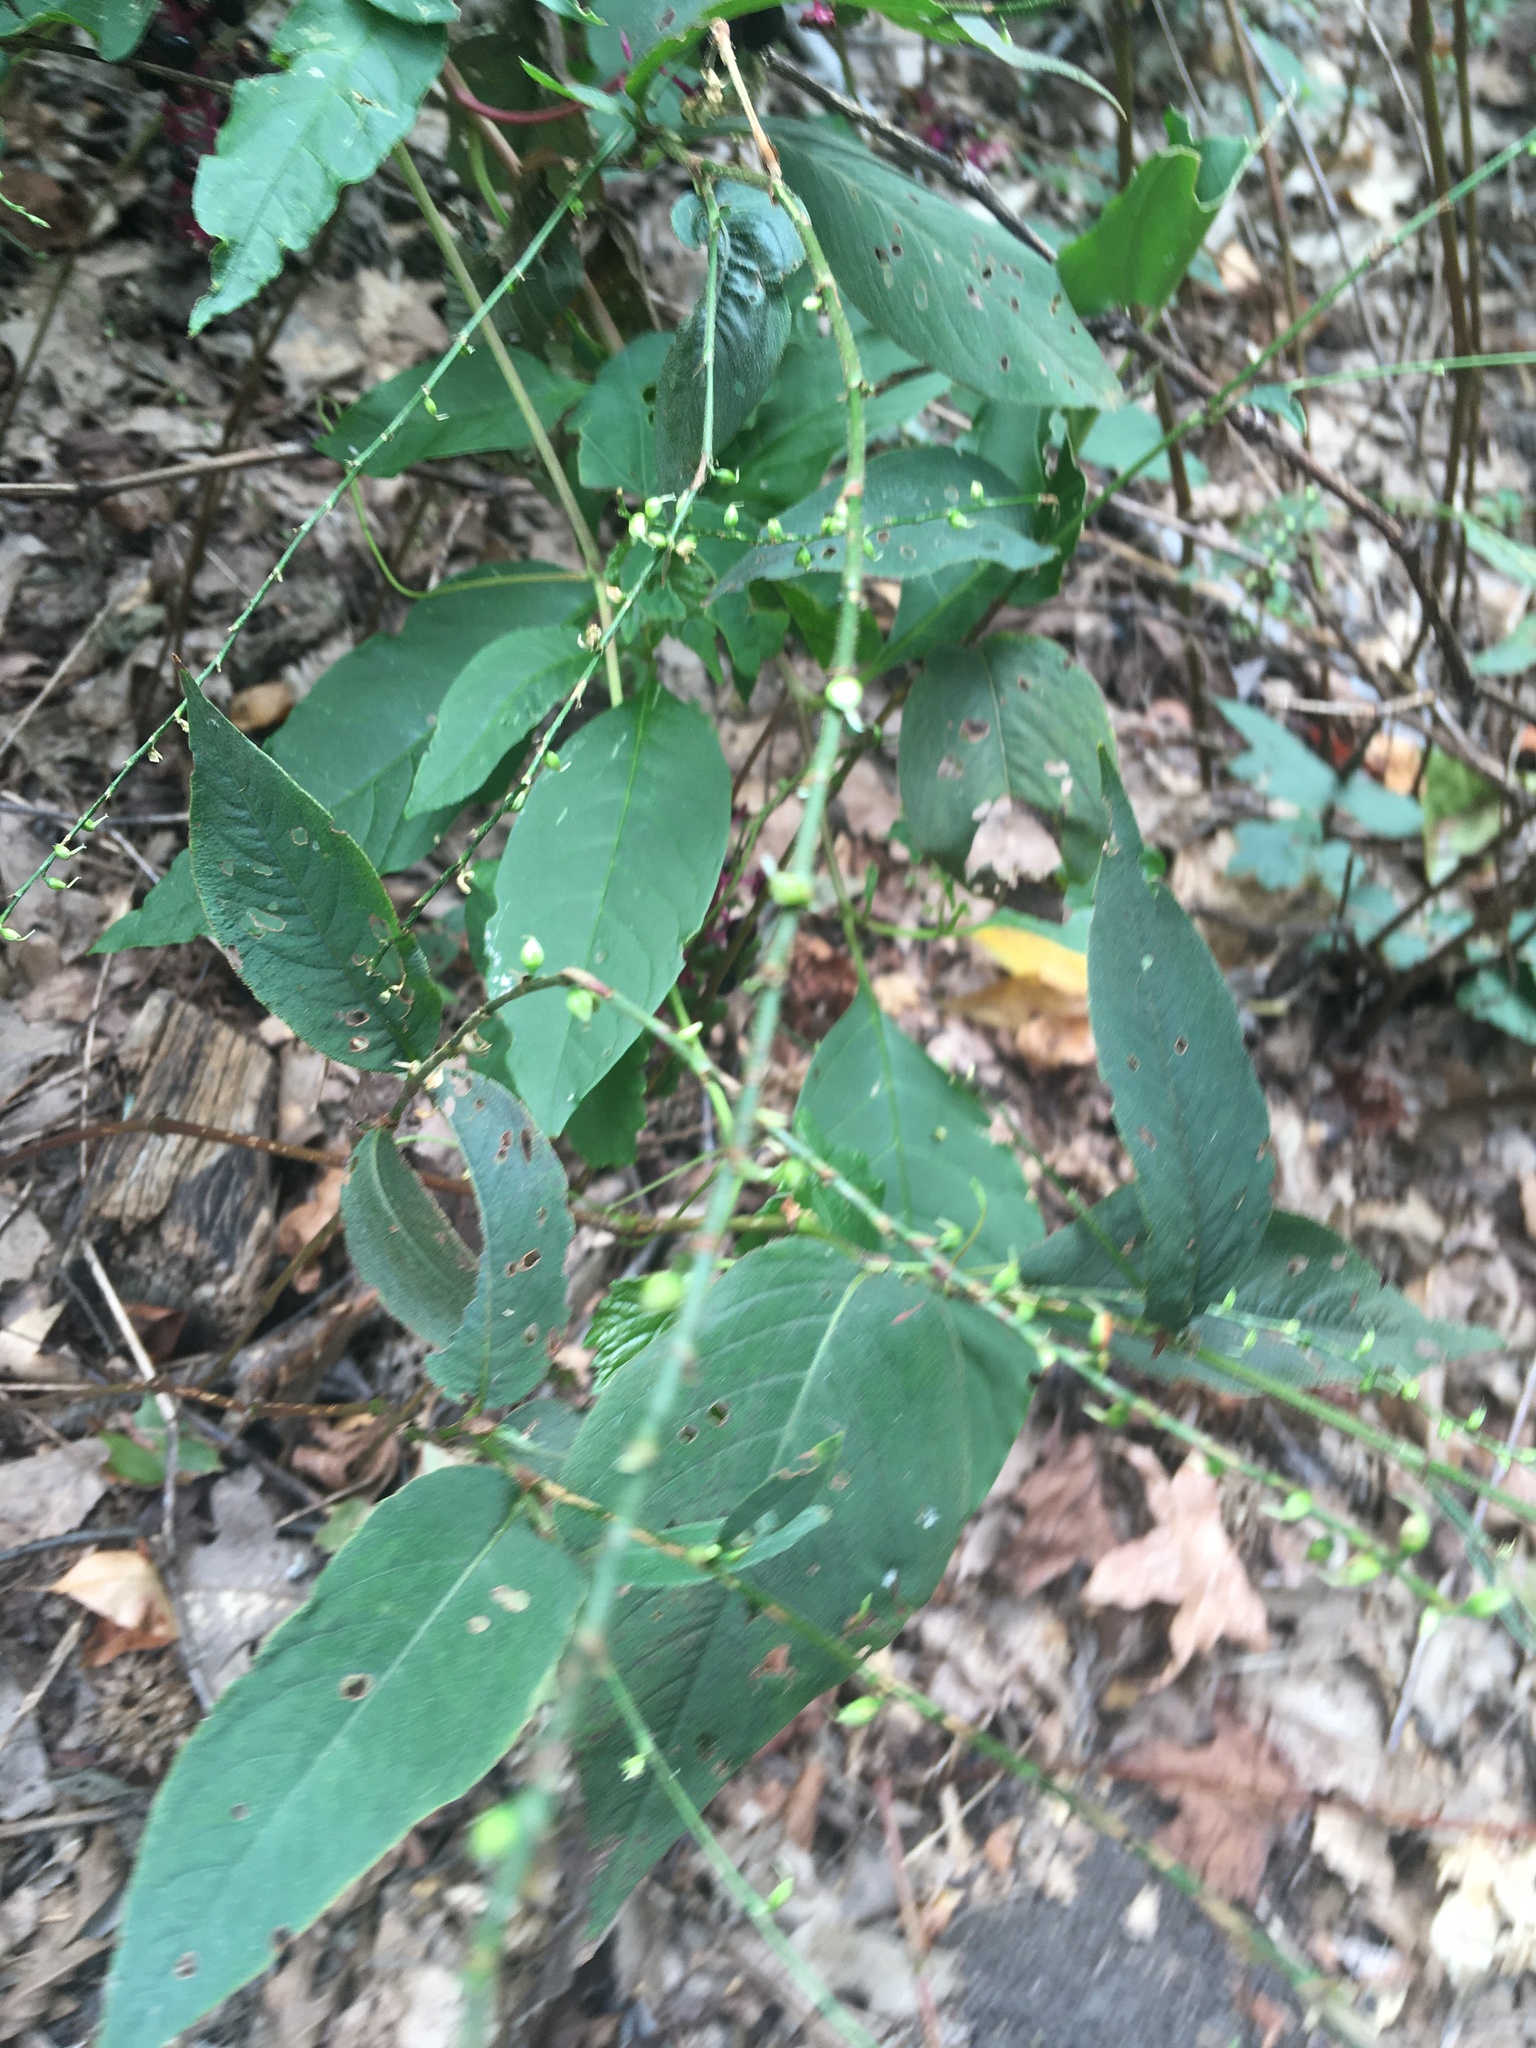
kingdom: Plantae
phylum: Tracheophyta
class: Magnoliopsida
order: Caryophyllales
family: Polygonaceae
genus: Persicaria
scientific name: Persicaria virginiana
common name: Jumpseed
